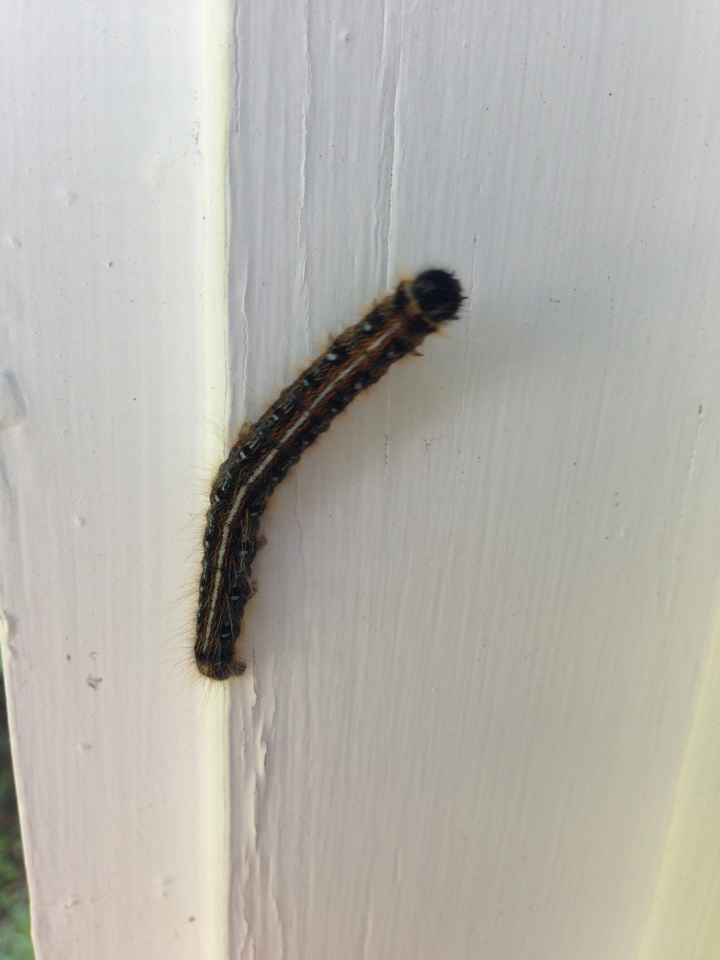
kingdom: Animalia
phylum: Arthropoda
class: Insecta
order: Lepidoptera
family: Lasiocampidae
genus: Malacosoma
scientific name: Malacosoma americana
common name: Eastern tent caterpillar moth
